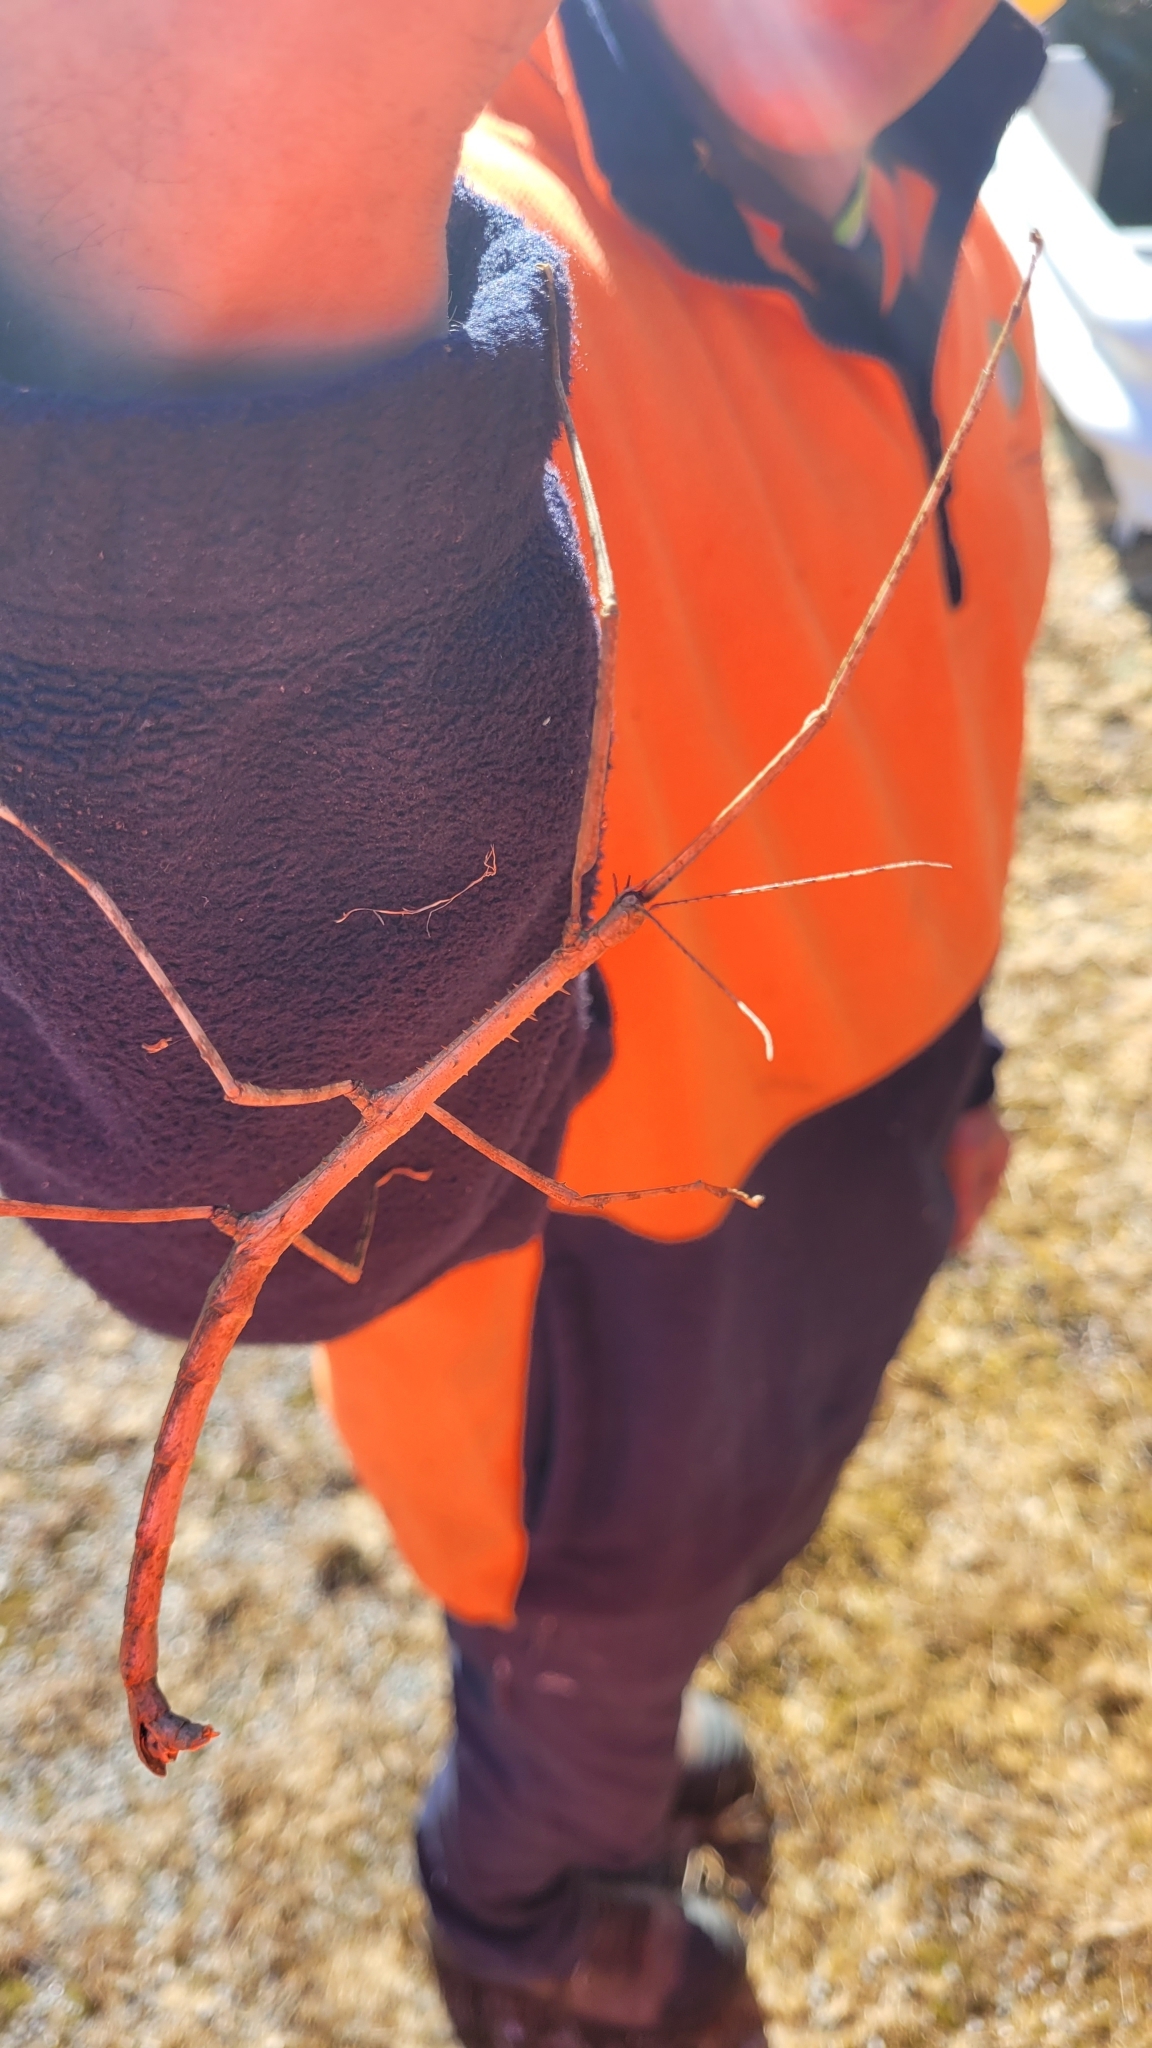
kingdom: Animalia
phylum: Arthropoda
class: Insecta
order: Phasmida
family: Phasmatidae
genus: Argosarchus
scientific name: Argosarchus horridus
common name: Bristly stick insect
